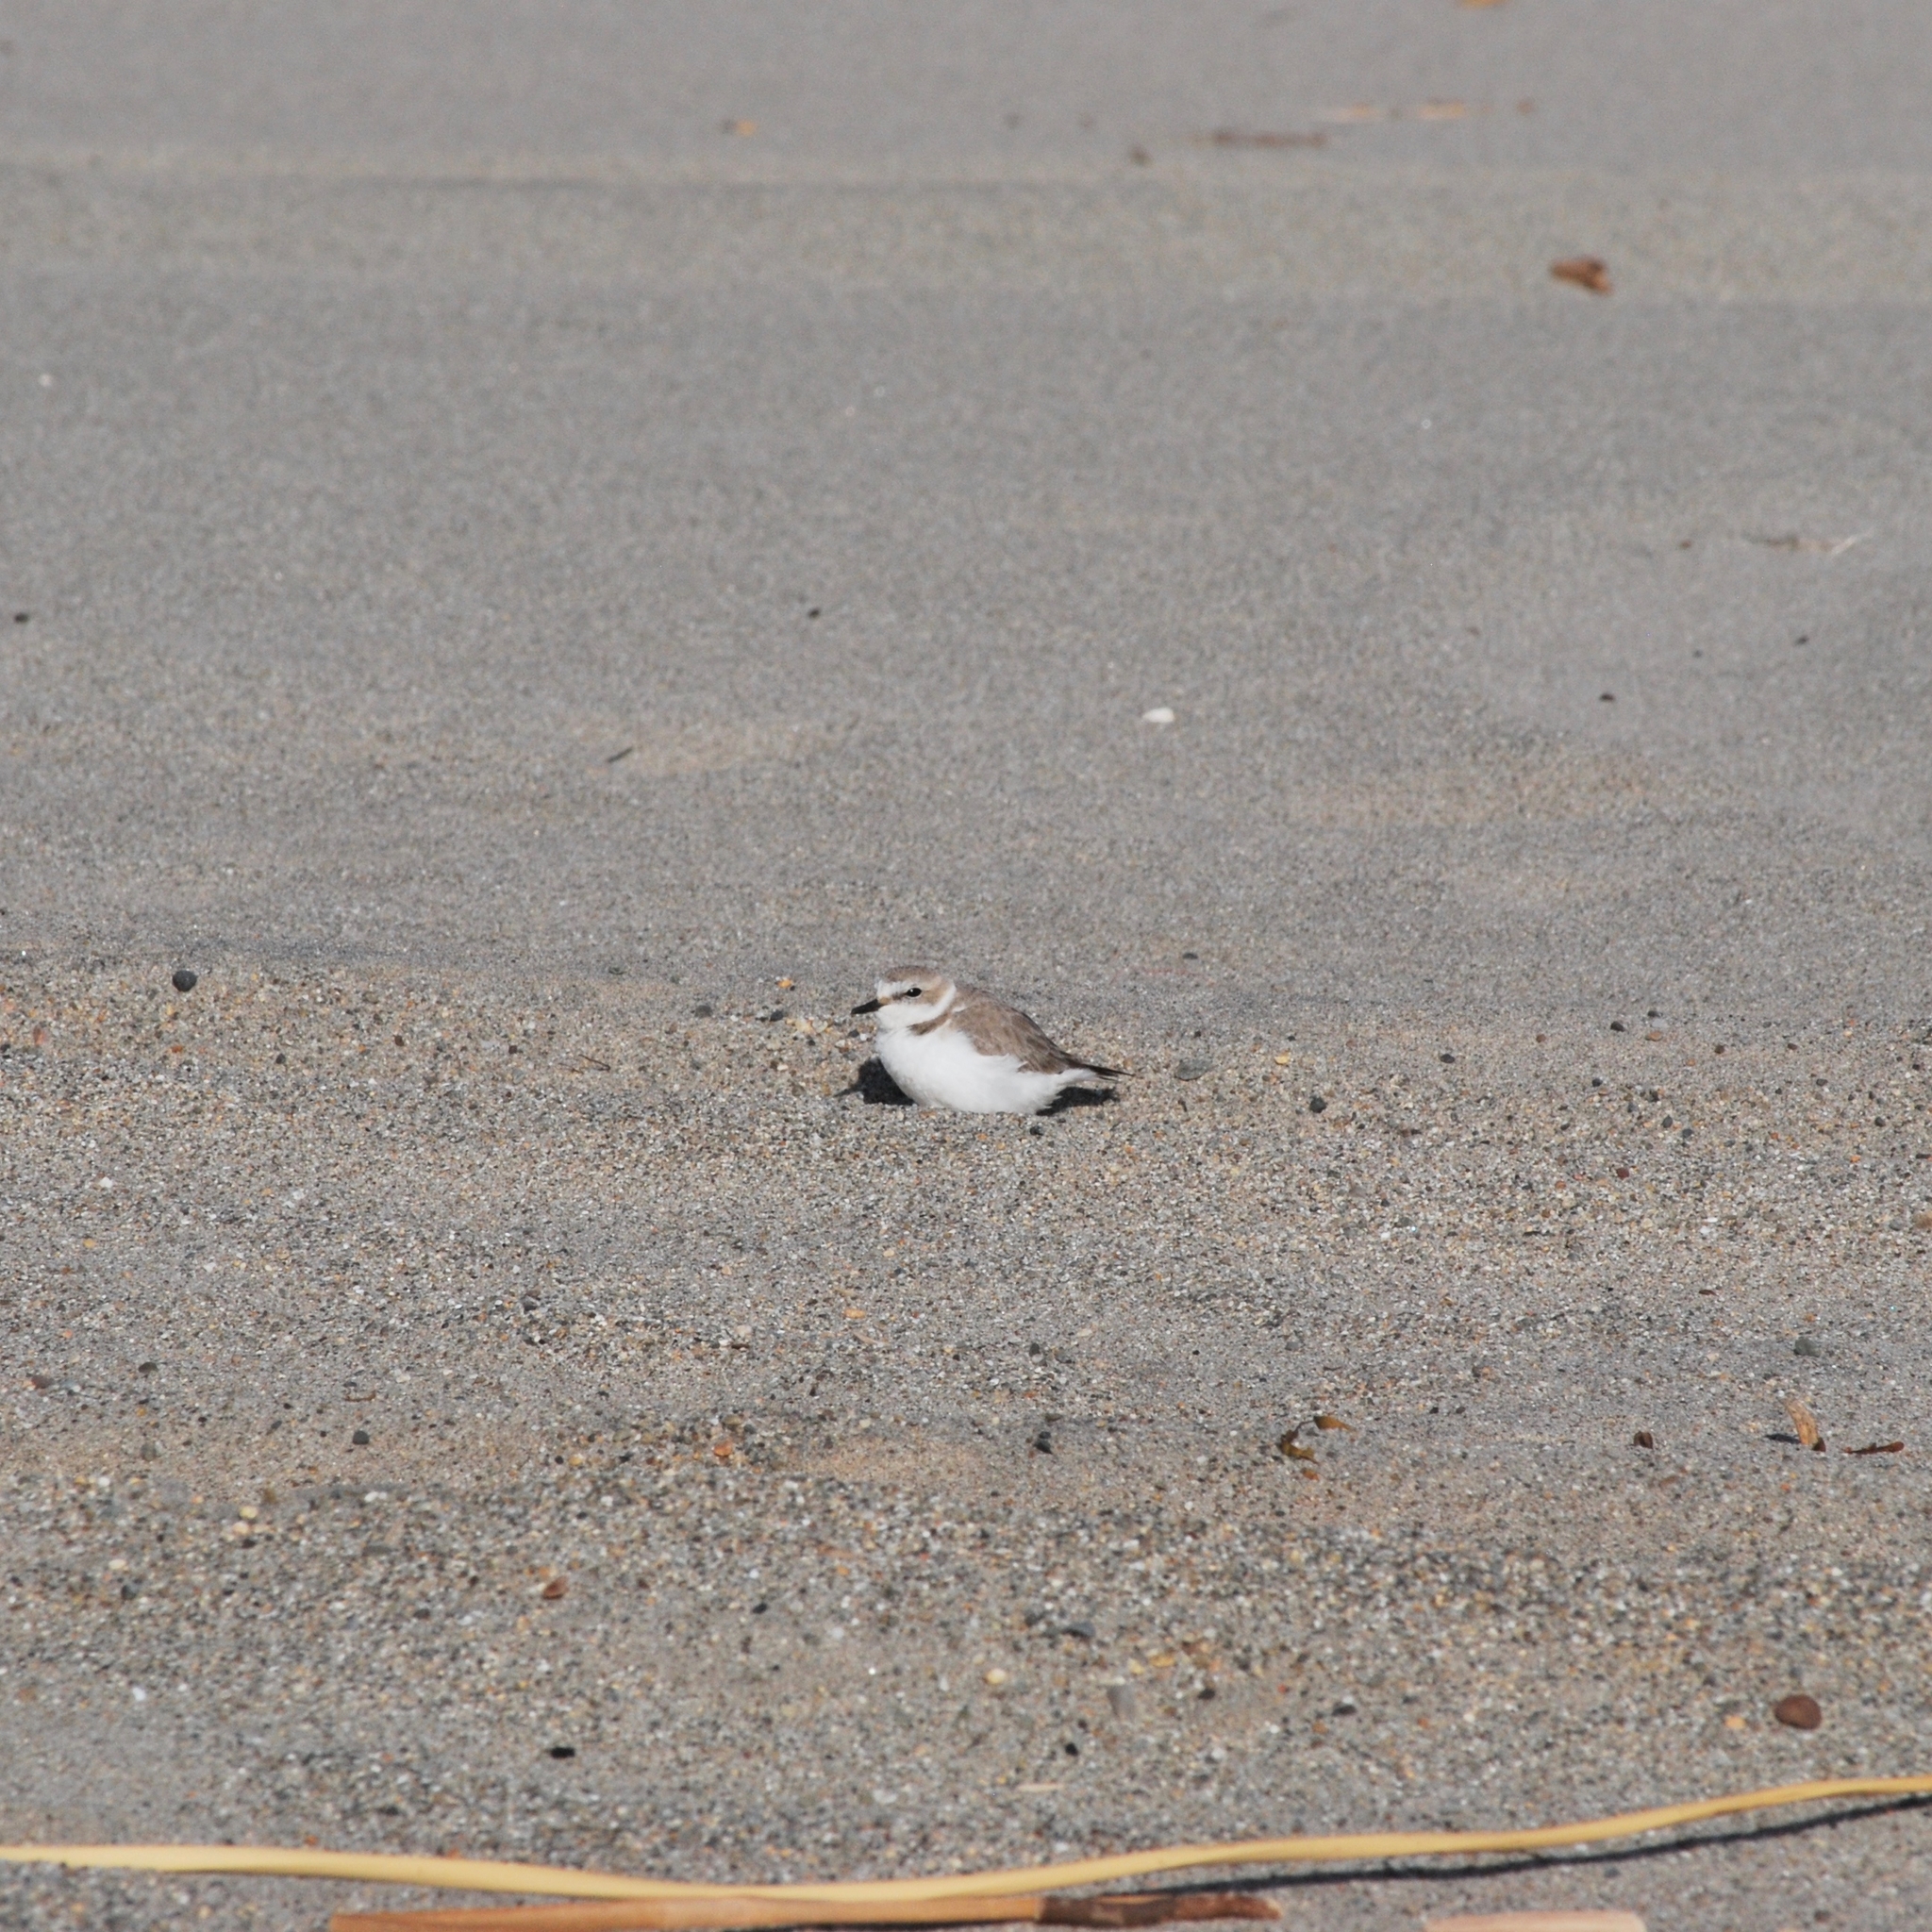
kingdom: Animalia
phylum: Chordata
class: Aves
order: Charadriiformes
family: Charadriidae
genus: Anarhynchus
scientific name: Anarhynchus
